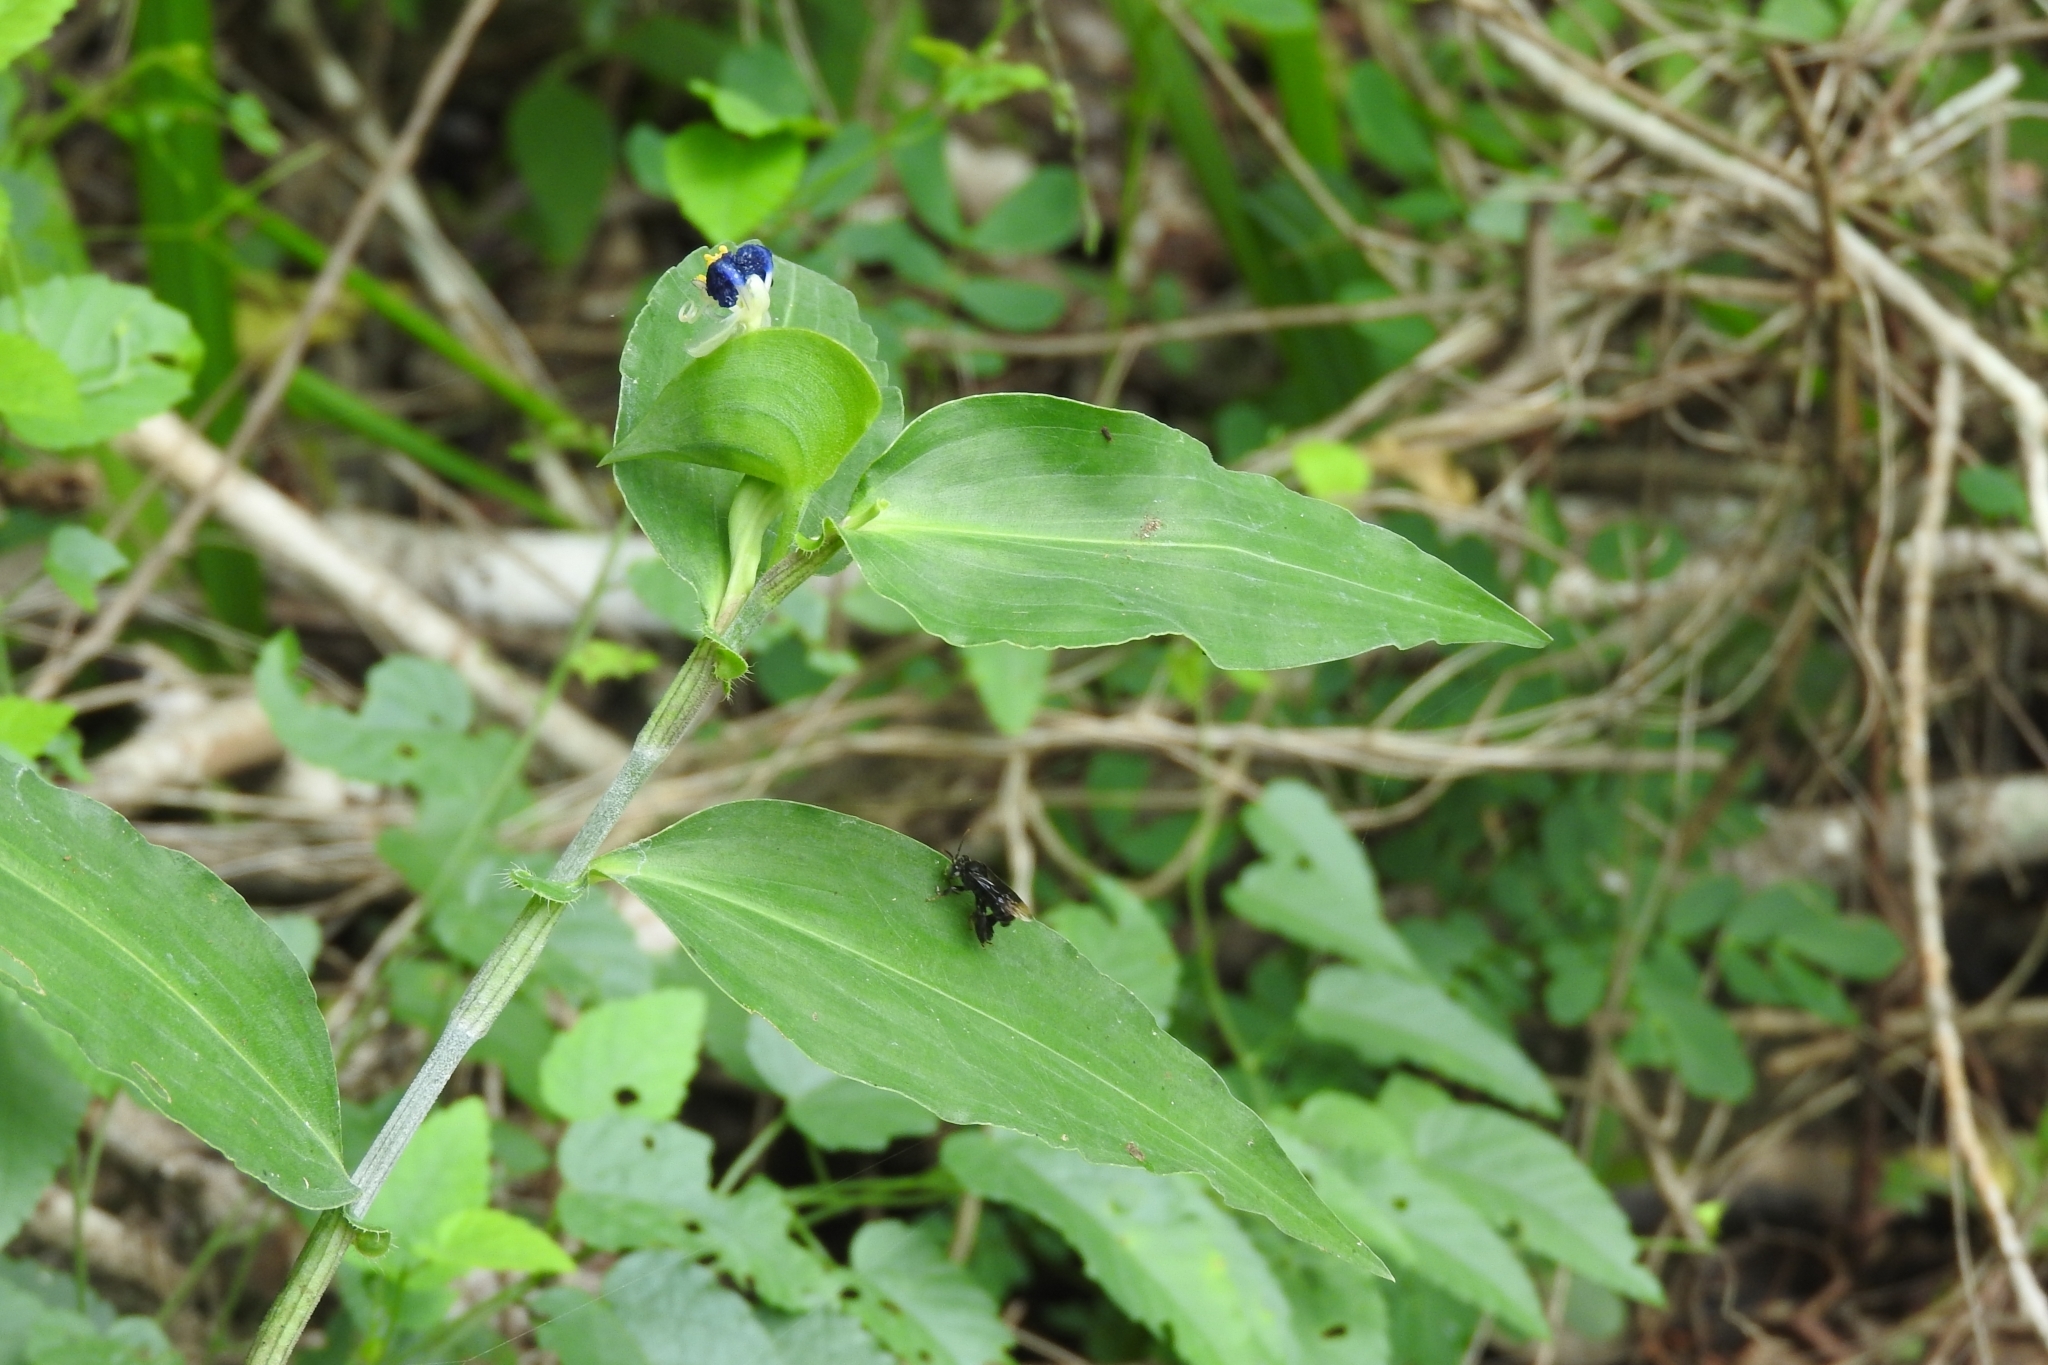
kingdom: Plantae
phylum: Tracheophyta
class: Liliopsida
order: Commelinales
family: Commelinaceae
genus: Commelina
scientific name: Commelina erecta
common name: Blousel blommetjie
